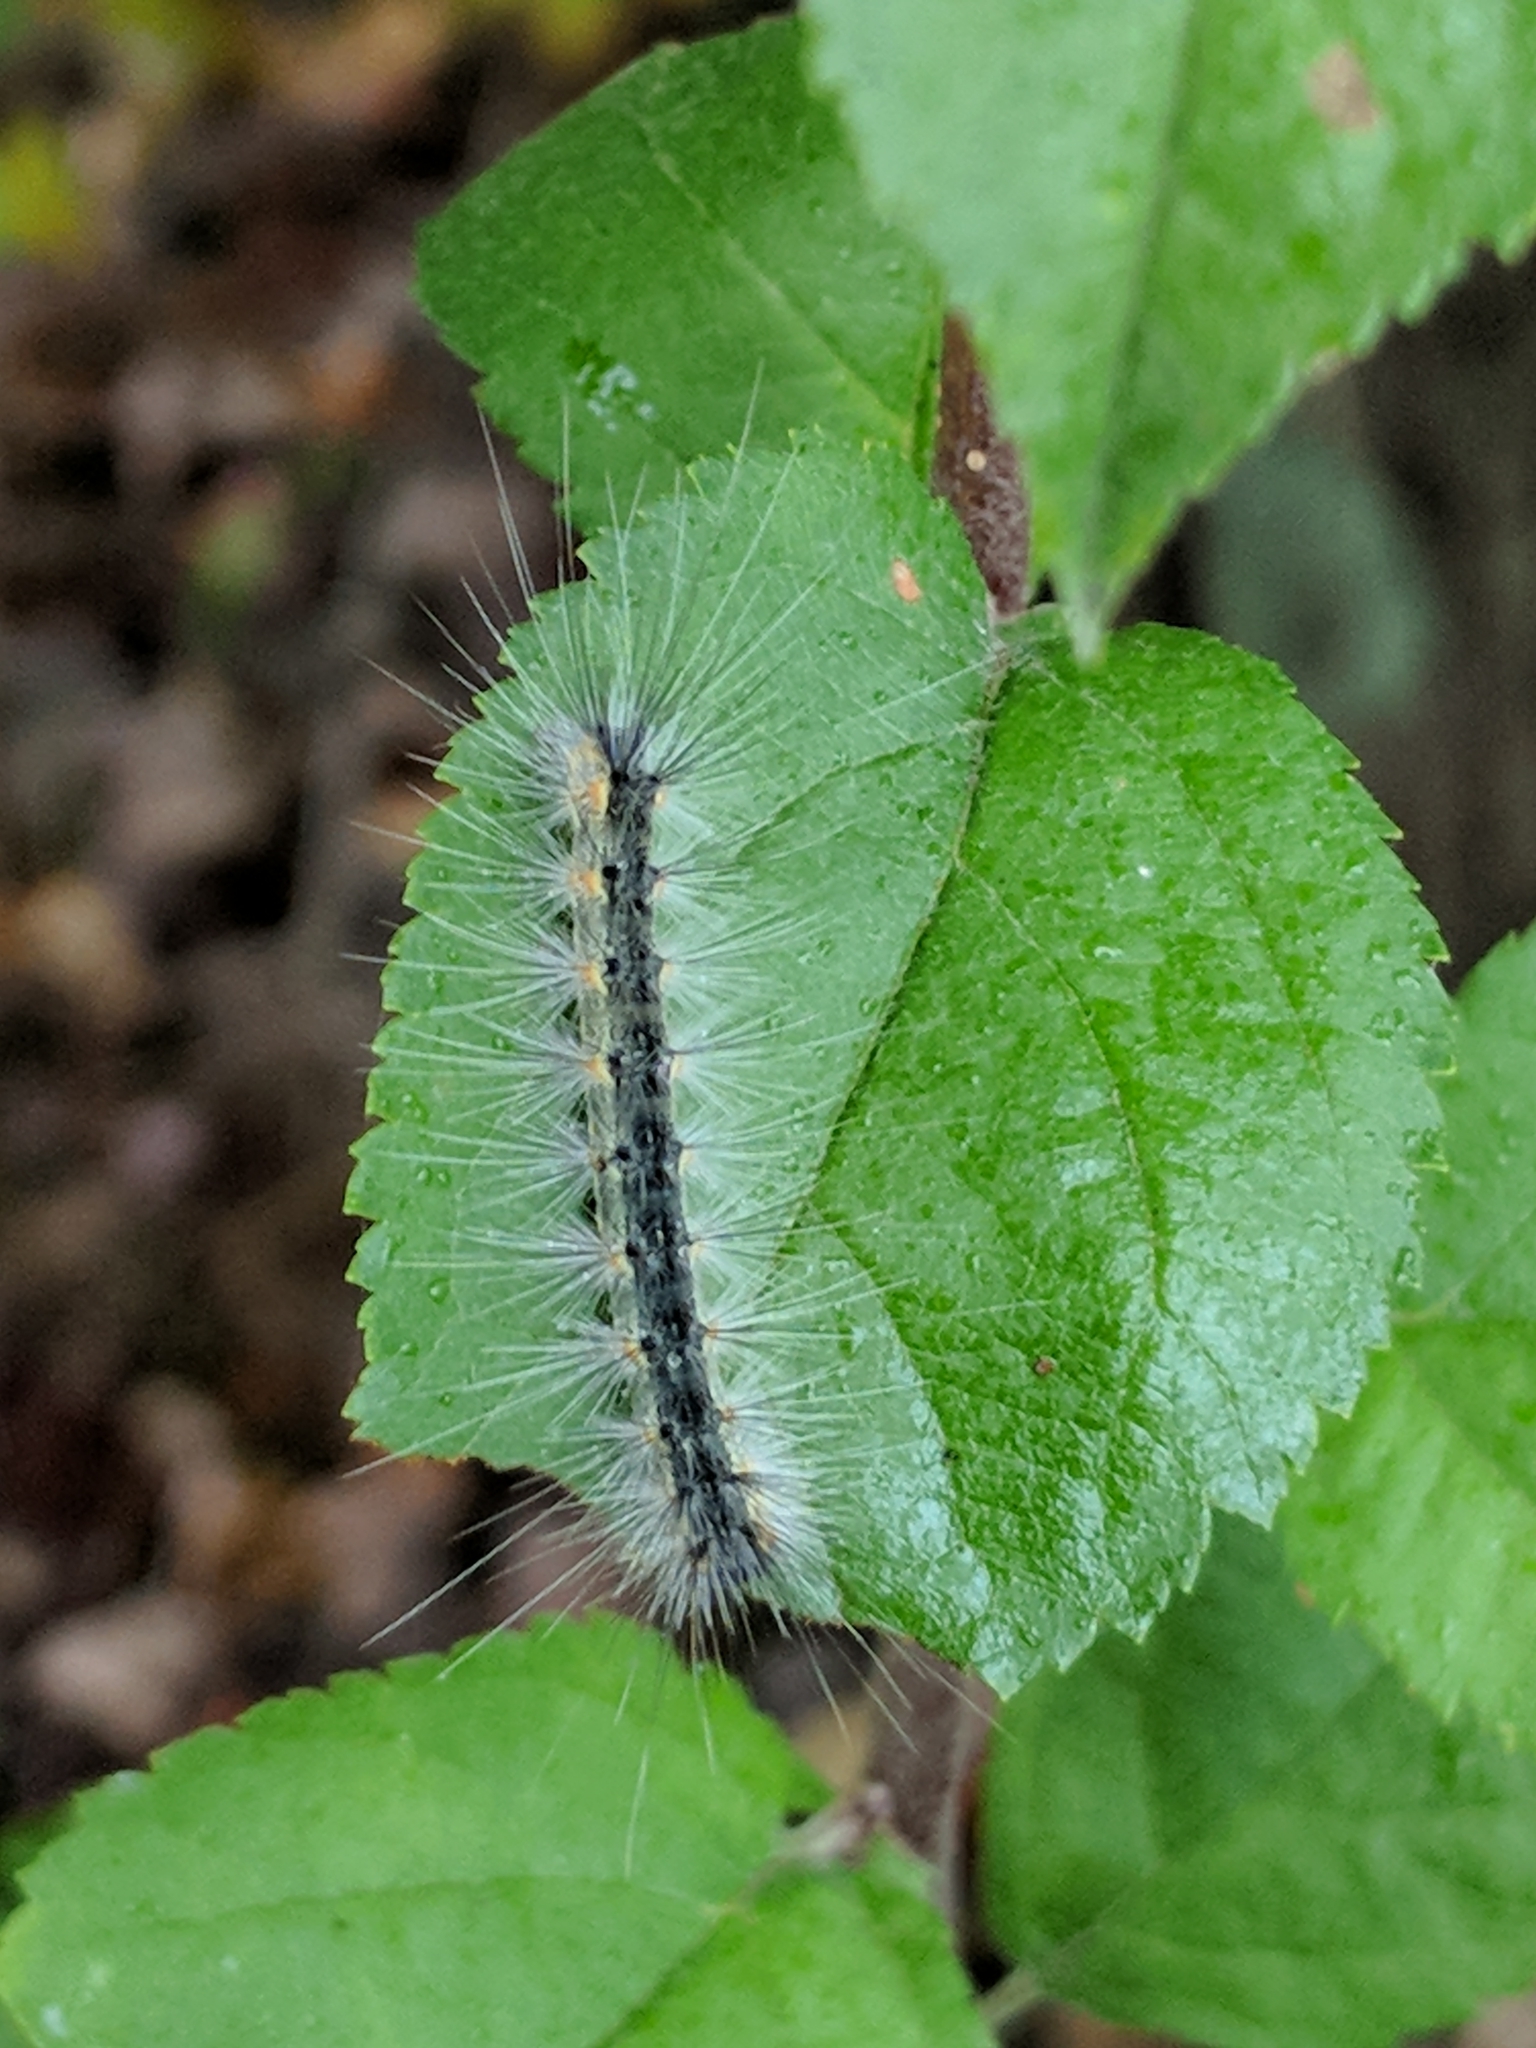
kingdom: Animalia
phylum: Arthropoda
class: Insecta
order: Lepidoptera
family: Erebidae
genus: Hyphantria
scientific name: Hyphantria cunea
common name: American white moth
